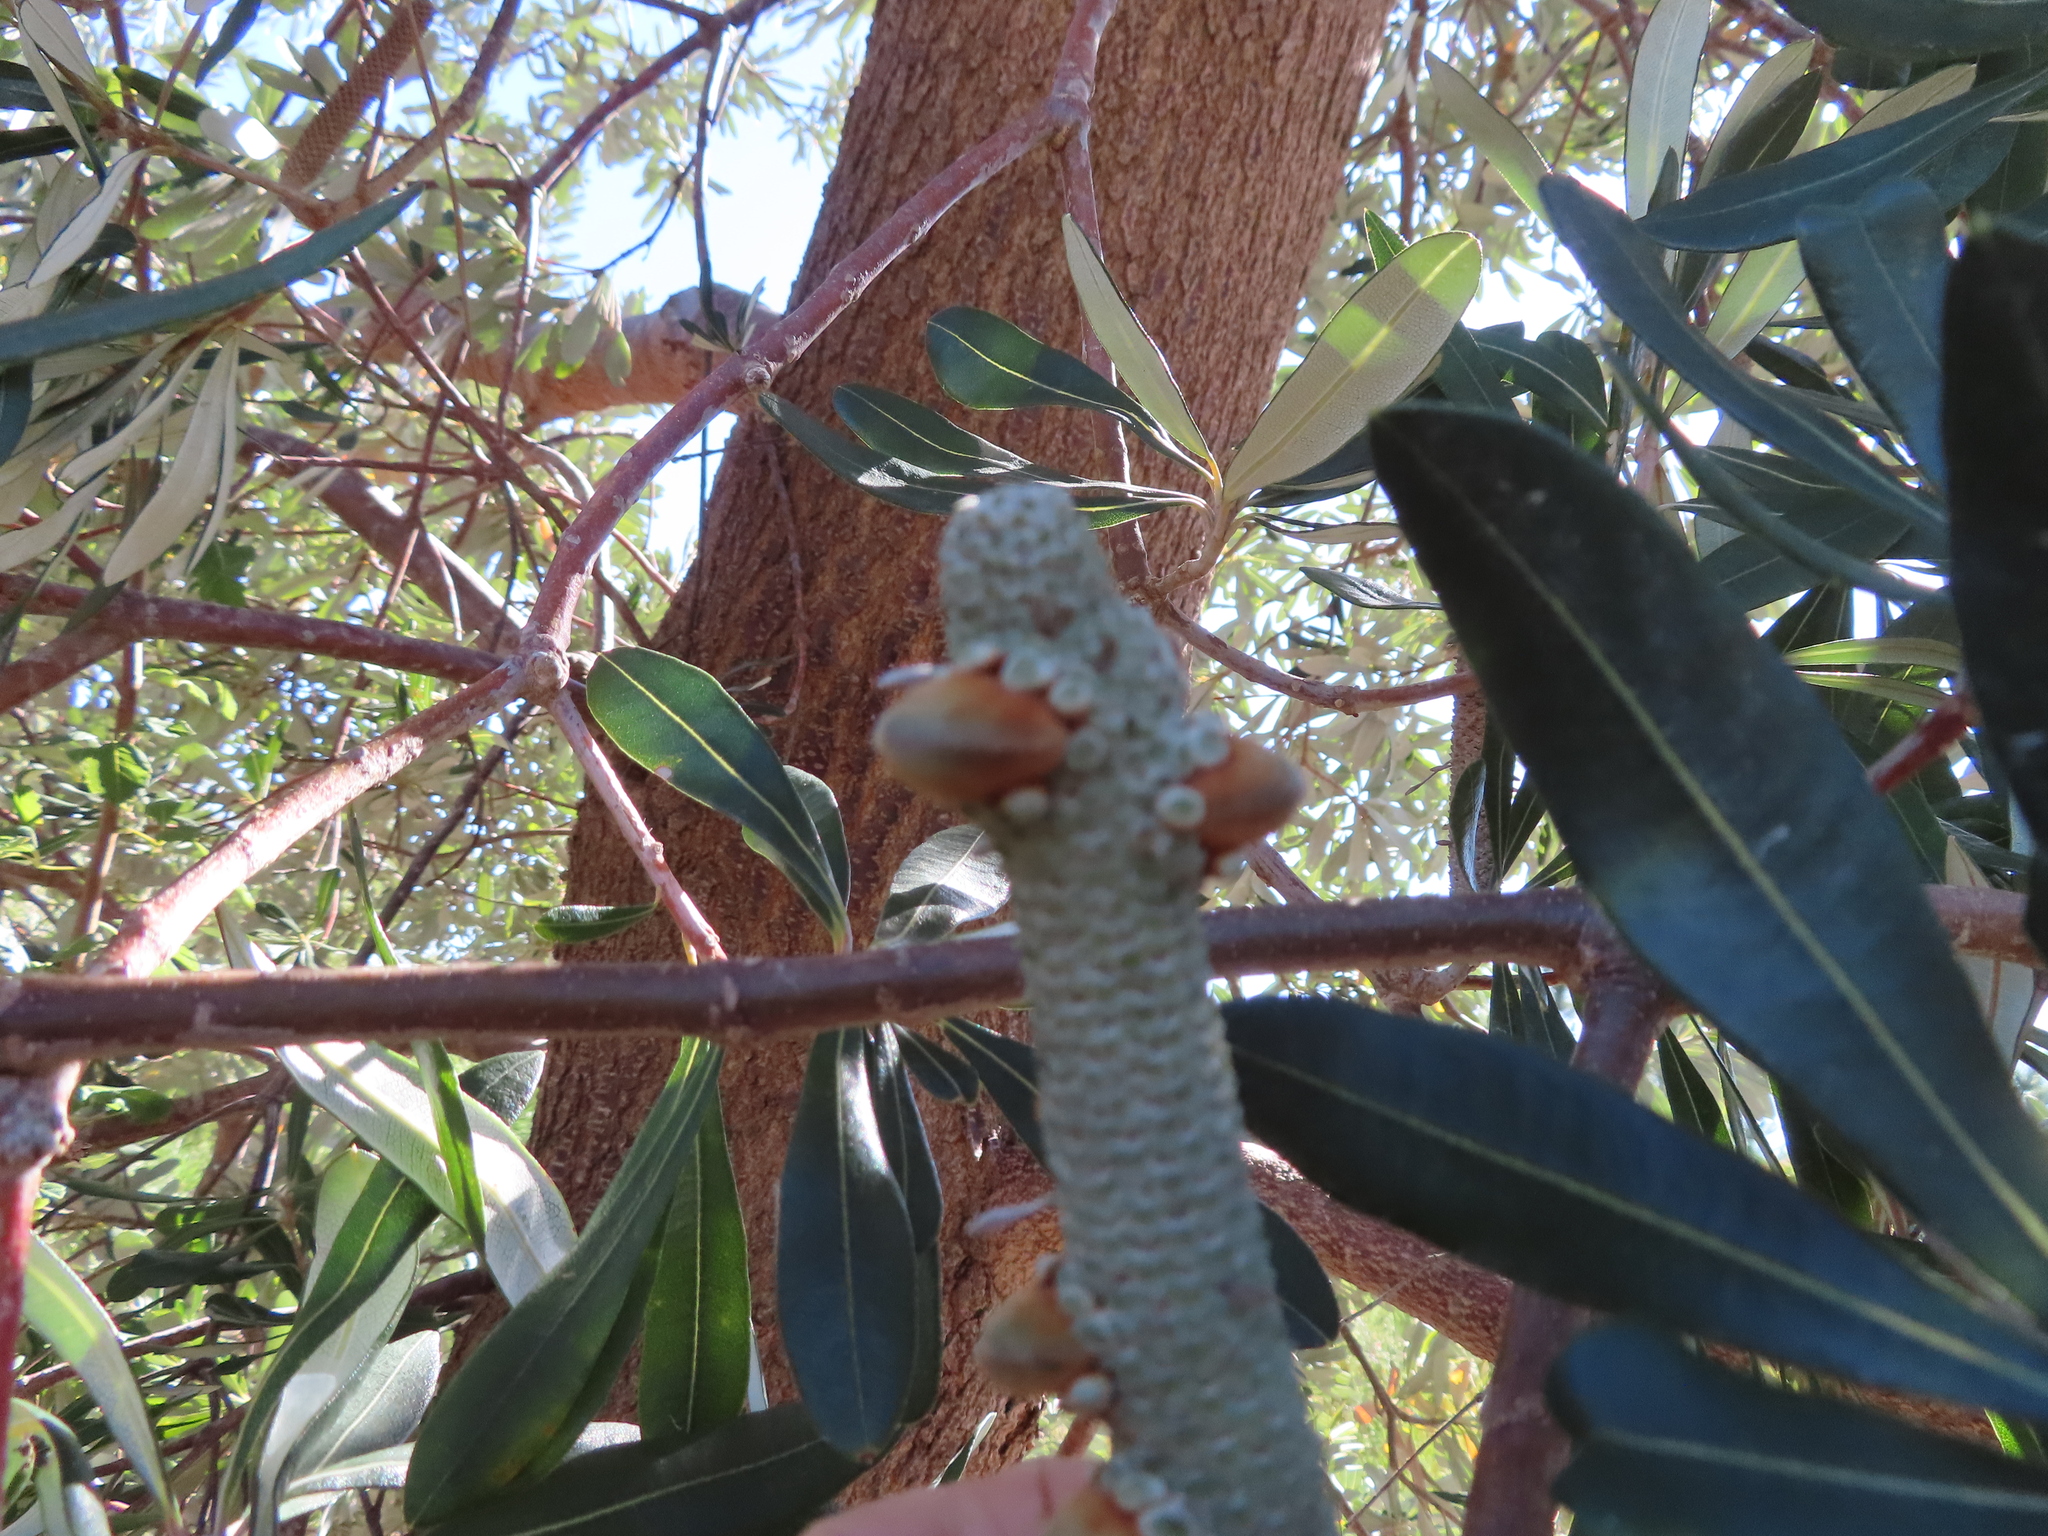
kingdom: Plantae
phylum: Tracheophyta
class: Magnoliopsida
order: Proteales
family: Proteaceae
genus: Banksia
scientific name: Banksia integrifolia
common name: White-honeysuckle
